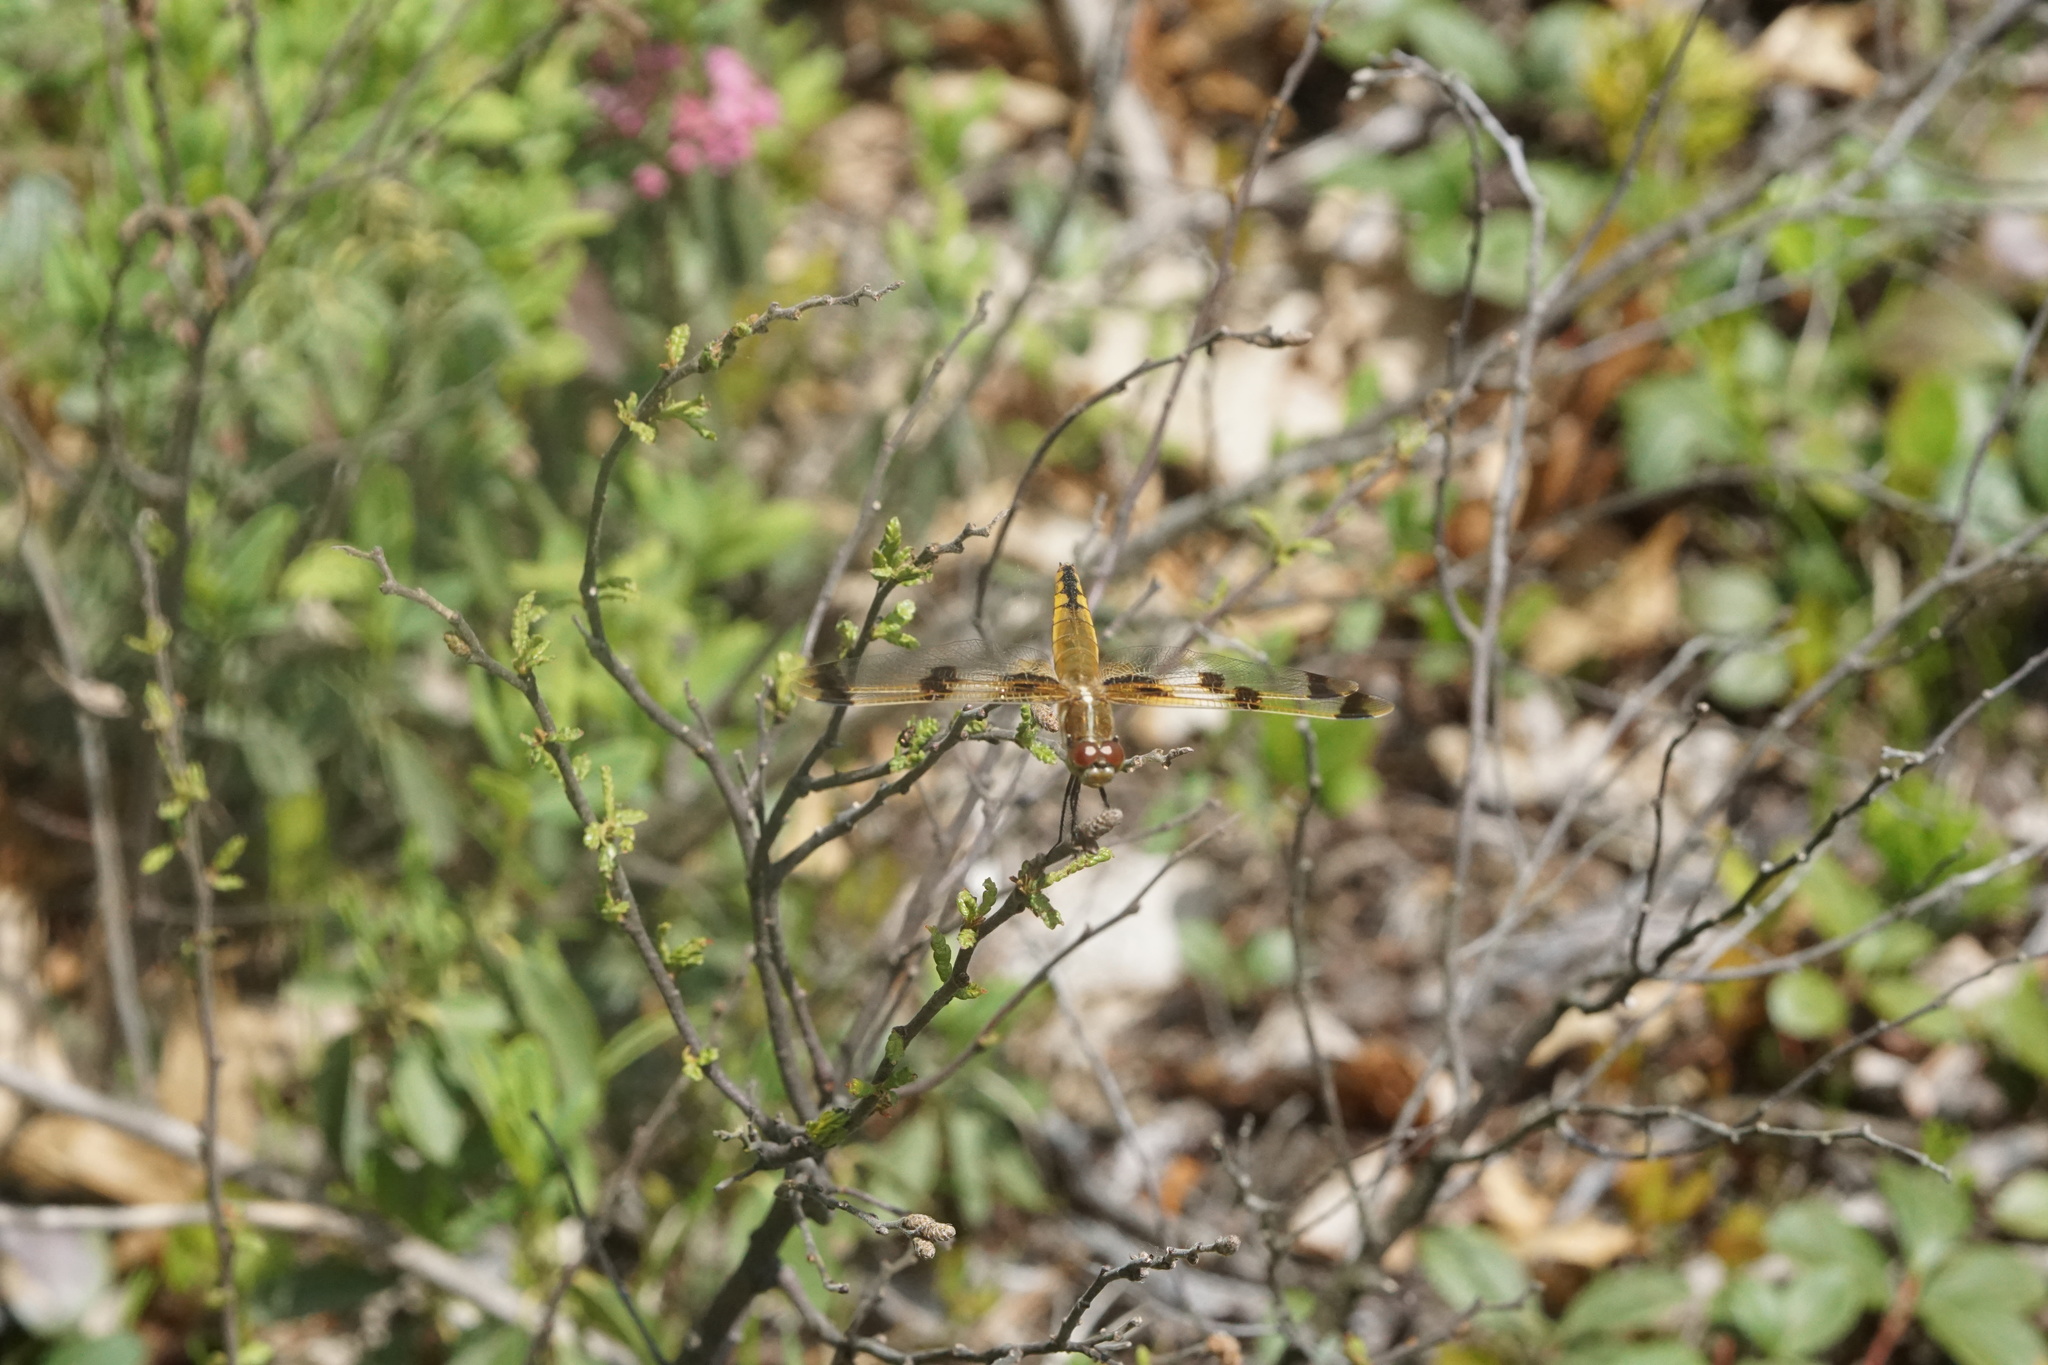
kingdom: Animalia
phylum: Arthropoda
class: Insecta
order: Odonata
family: Libellulidae
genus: Libellula
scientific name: Libellula semifasciata
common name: Painted skimmer
